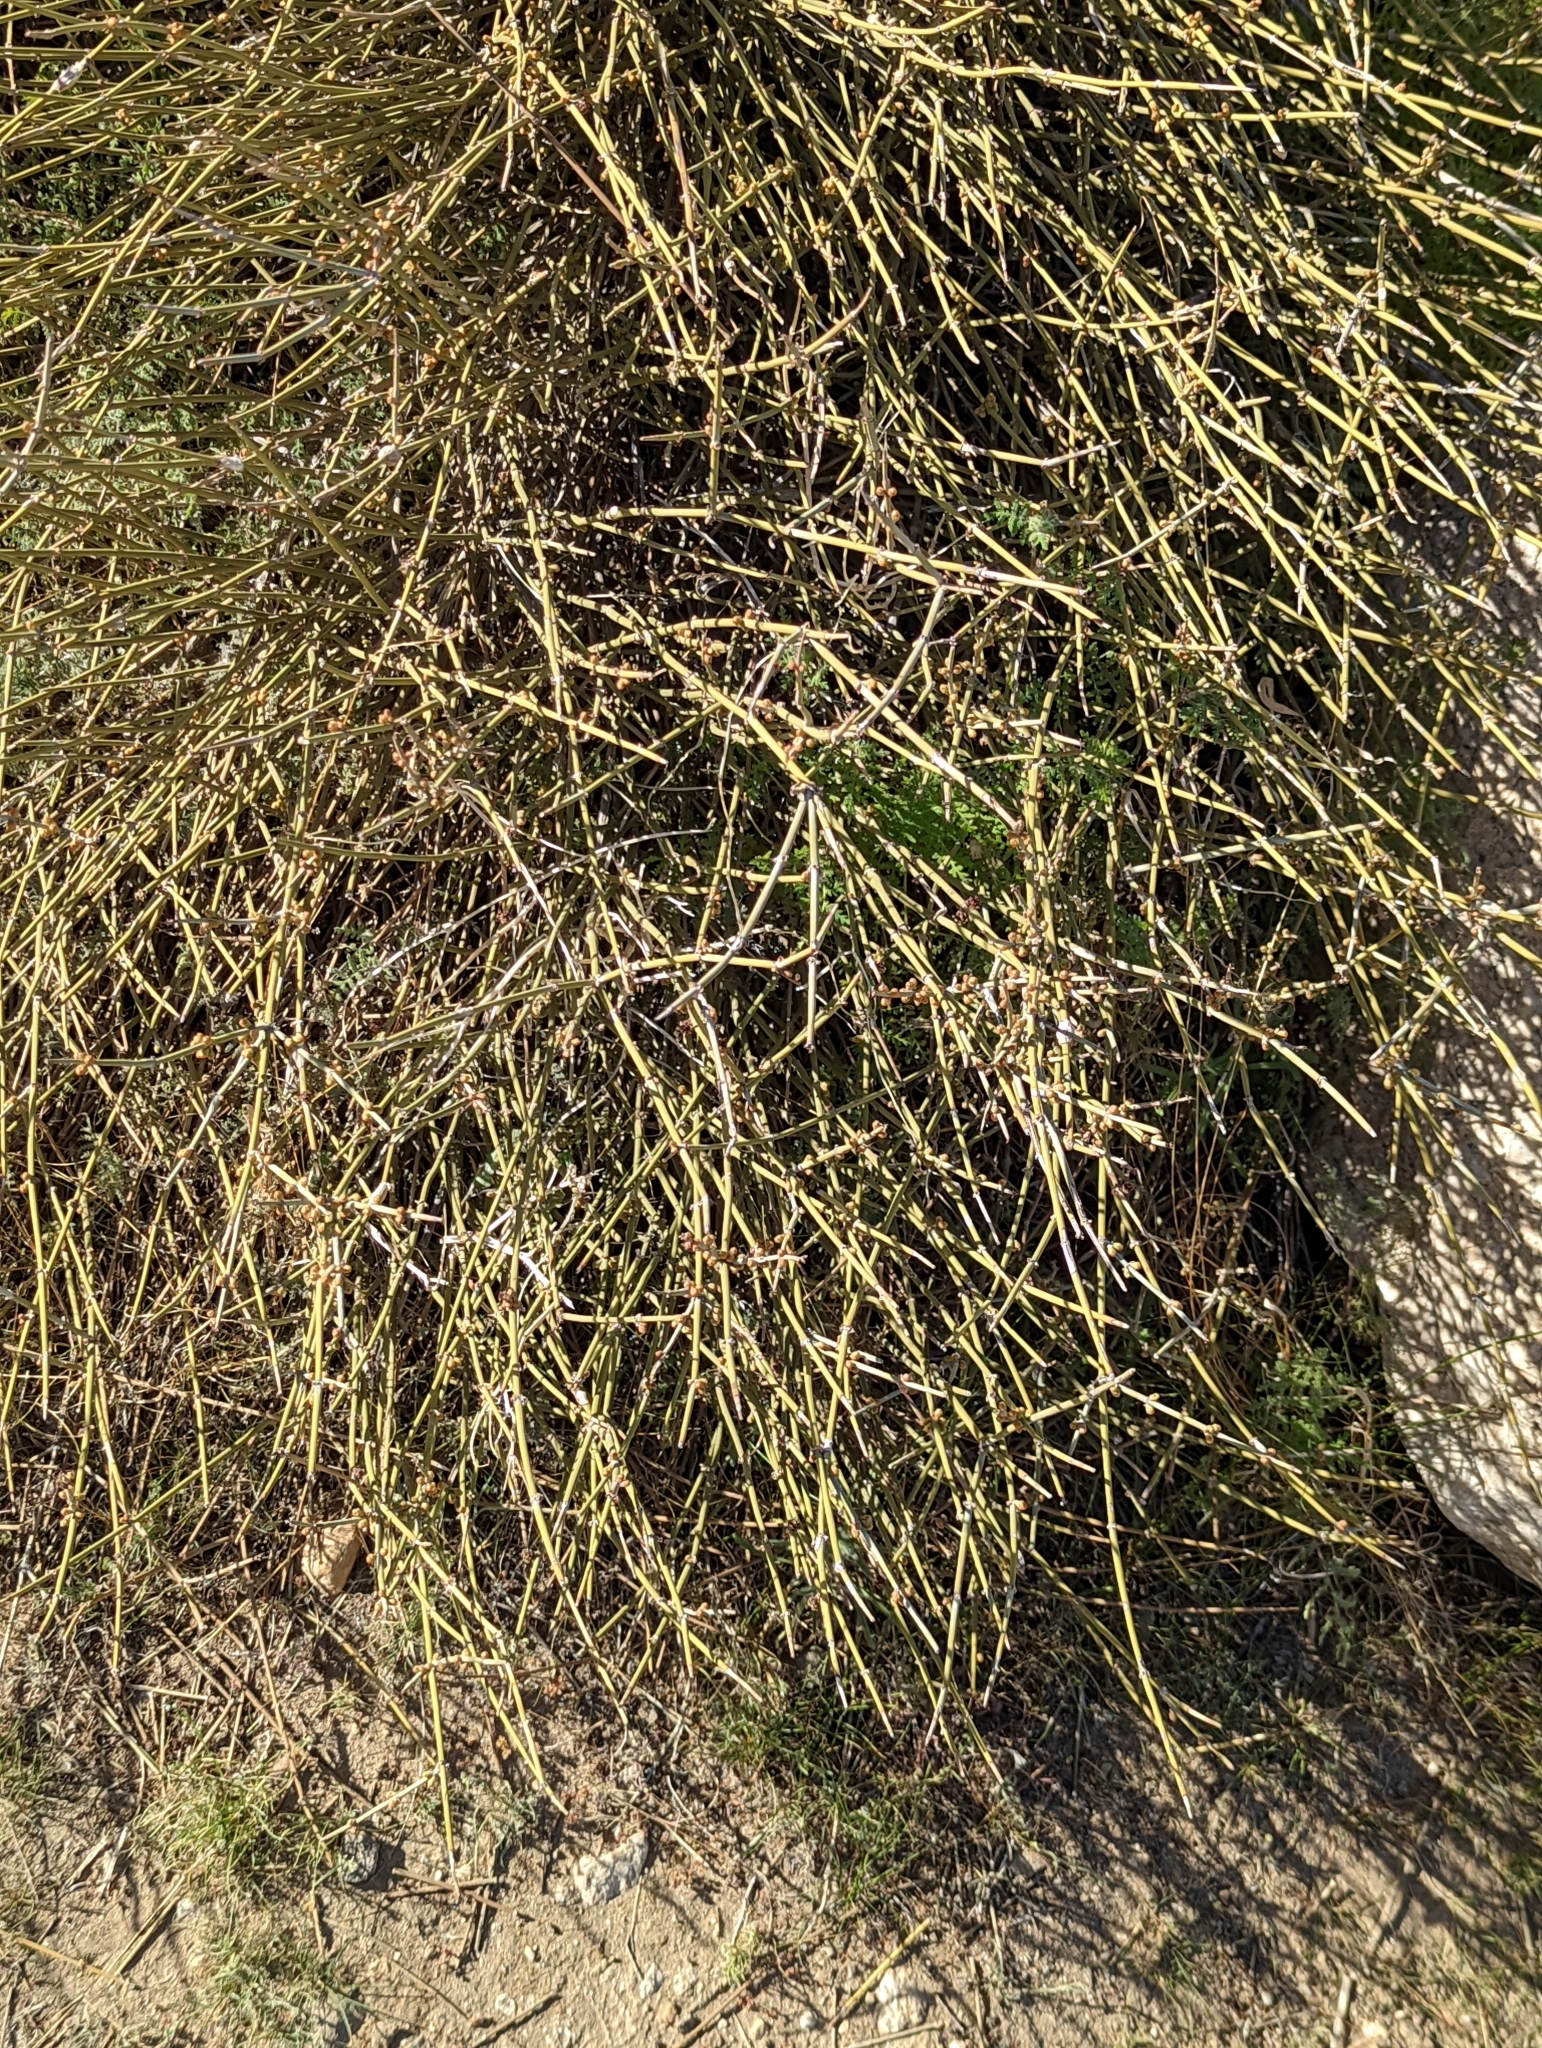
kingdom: Plantae
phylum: Tracheophyta
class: Gnetopsida
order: Ephedrales
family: Ephedraceae
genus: Ephedra
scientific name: Ephedra californica
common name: California ephedra
